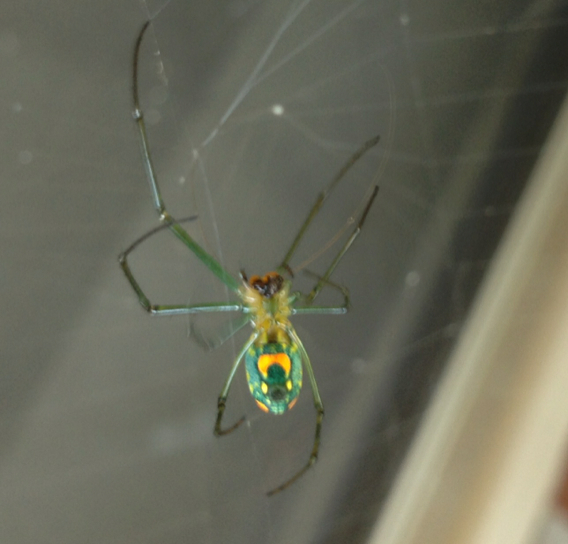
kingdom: Animalia
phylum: Arthropoda
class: Arachnida
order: Araneae
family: Tetragnathidae
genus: Leucauge
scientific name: Leucauge argyrobapta
